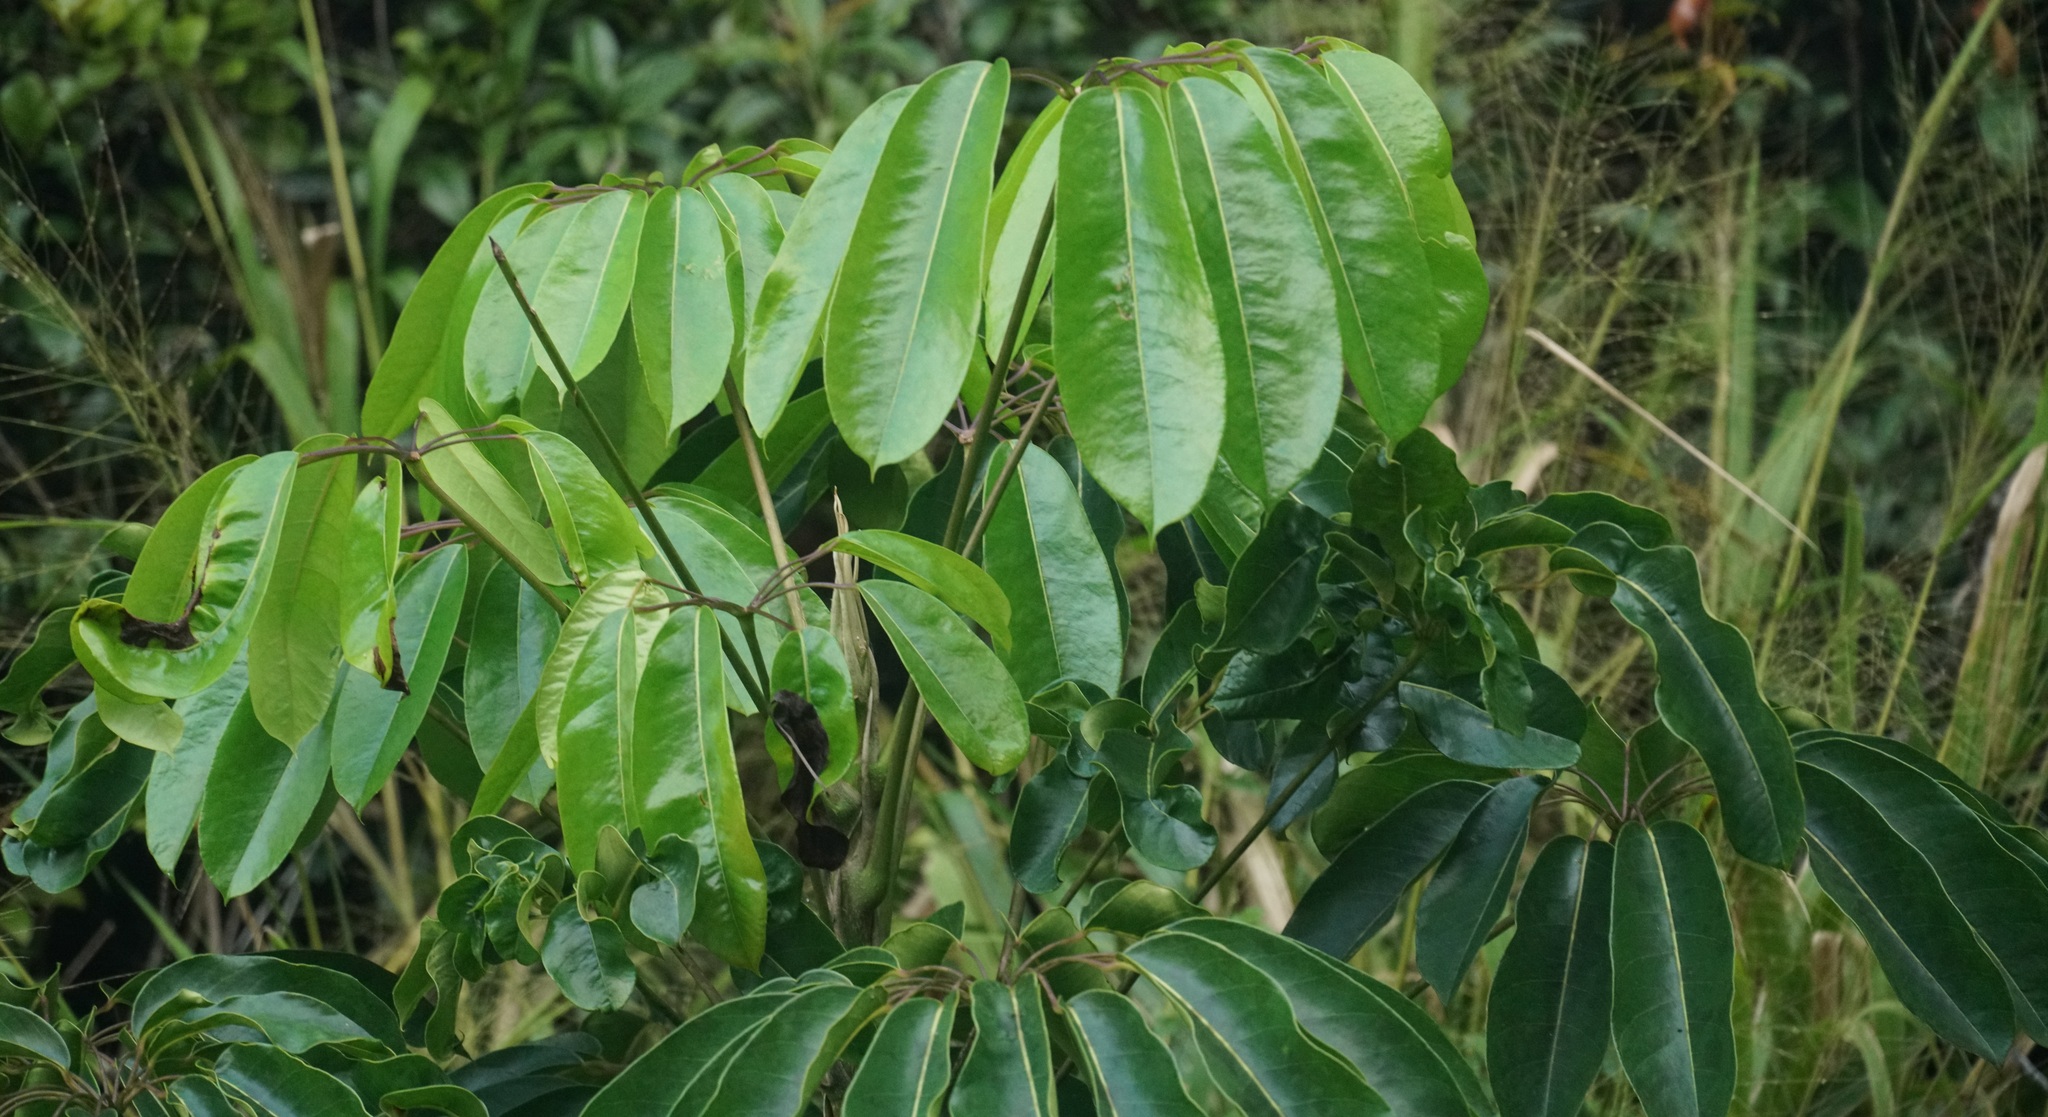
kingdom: Plantae
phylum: Tracheophyta
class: Magnoliopsida
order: Apiales
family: Araliaceae
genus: Heptapleurum
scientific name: Heptapleurum actinophyllum
